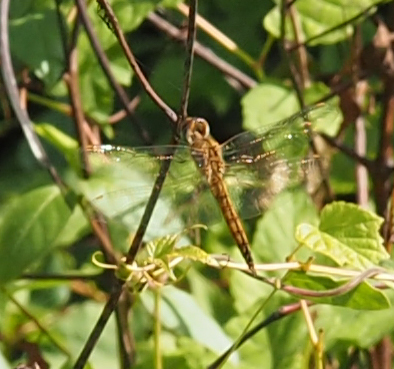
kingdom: Animalia
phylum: Arthropoda
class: Insecta
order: Odonata
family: Libellulidae
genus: Pantala
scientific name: Pantala flavescens
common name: Wandering glider
